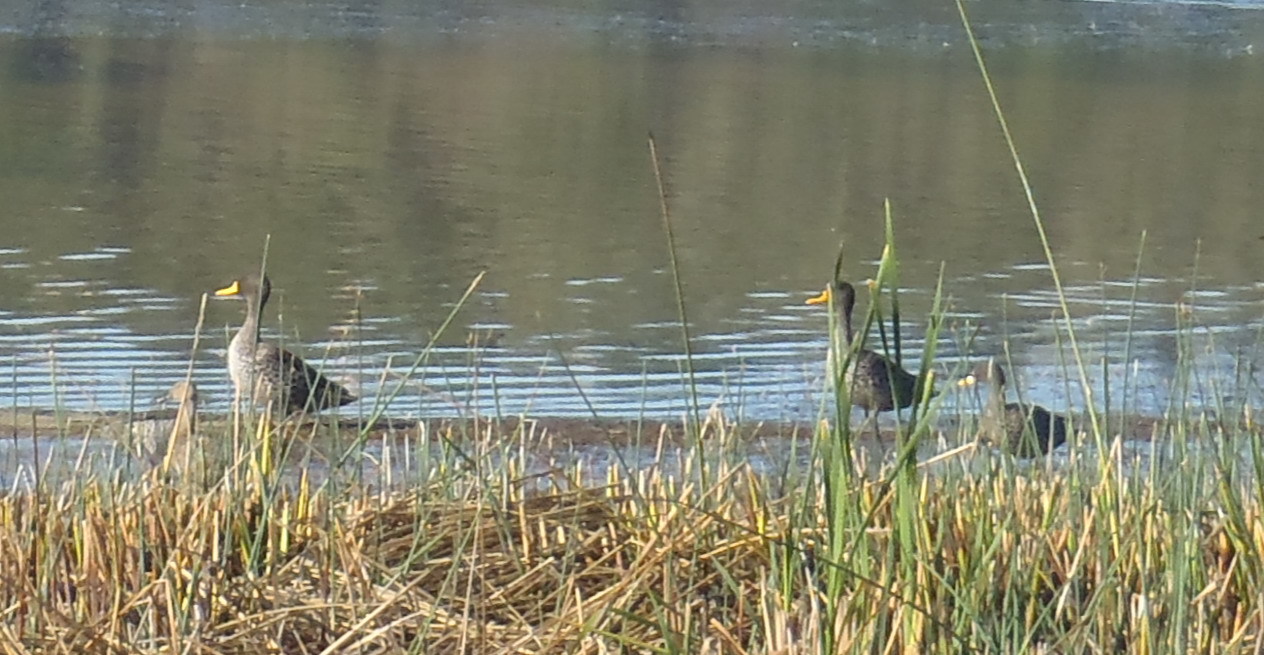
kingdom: Animalia
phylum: Chordata
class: Aves
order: Anseriformes
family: Anatidae
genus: Anas
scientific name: Anas undulata
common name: Yellow-billed duck
